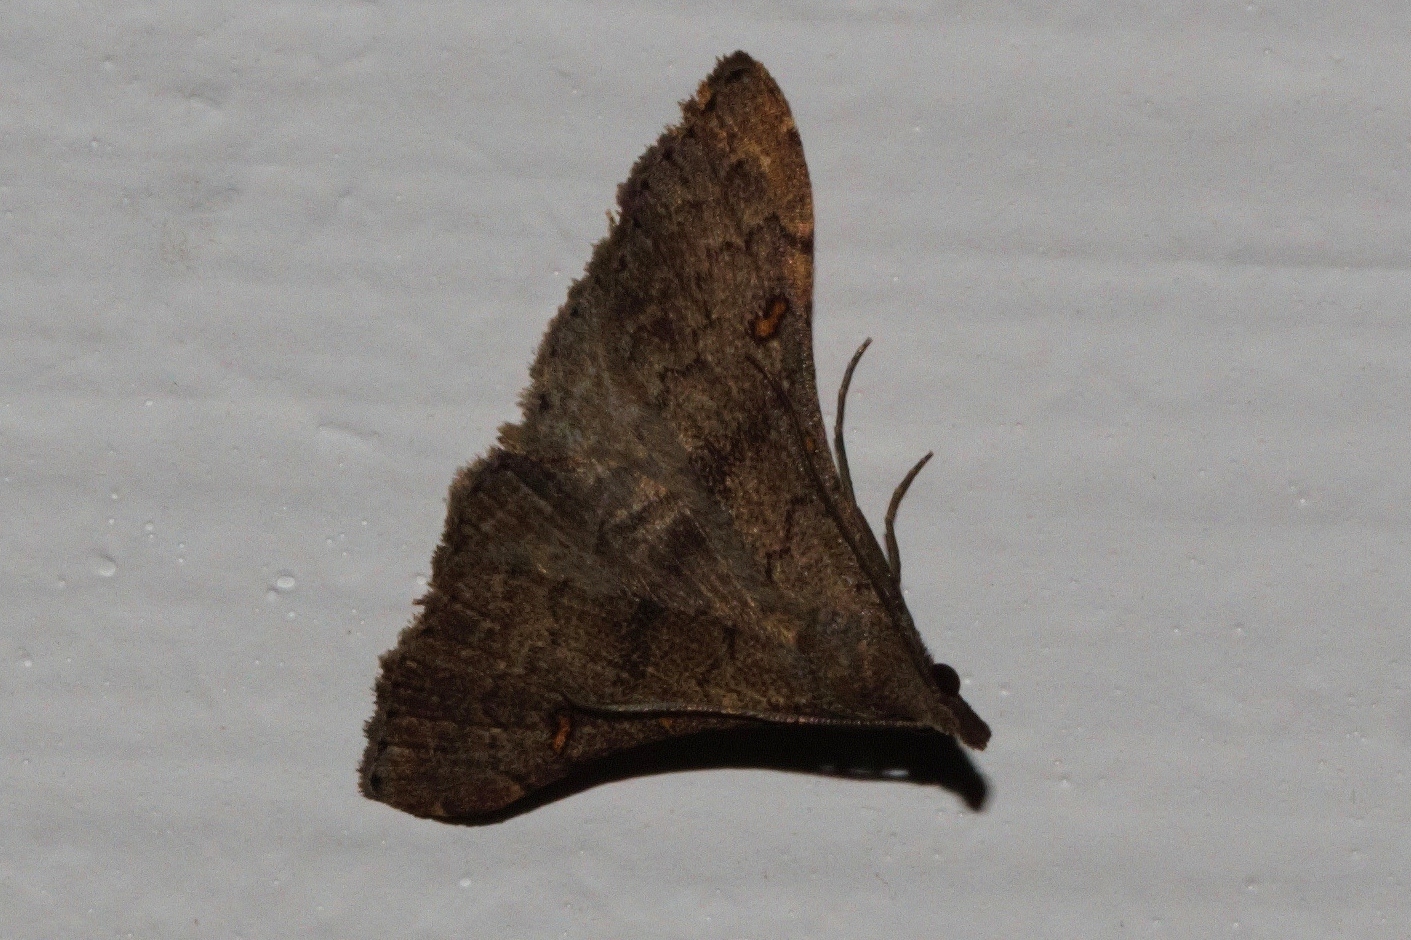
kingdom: Animalia
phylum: Arthropoda
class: Insecta
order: Lepidoptera
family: Erebidae
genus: Gynaephila
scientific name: Gynaephila melanomma
